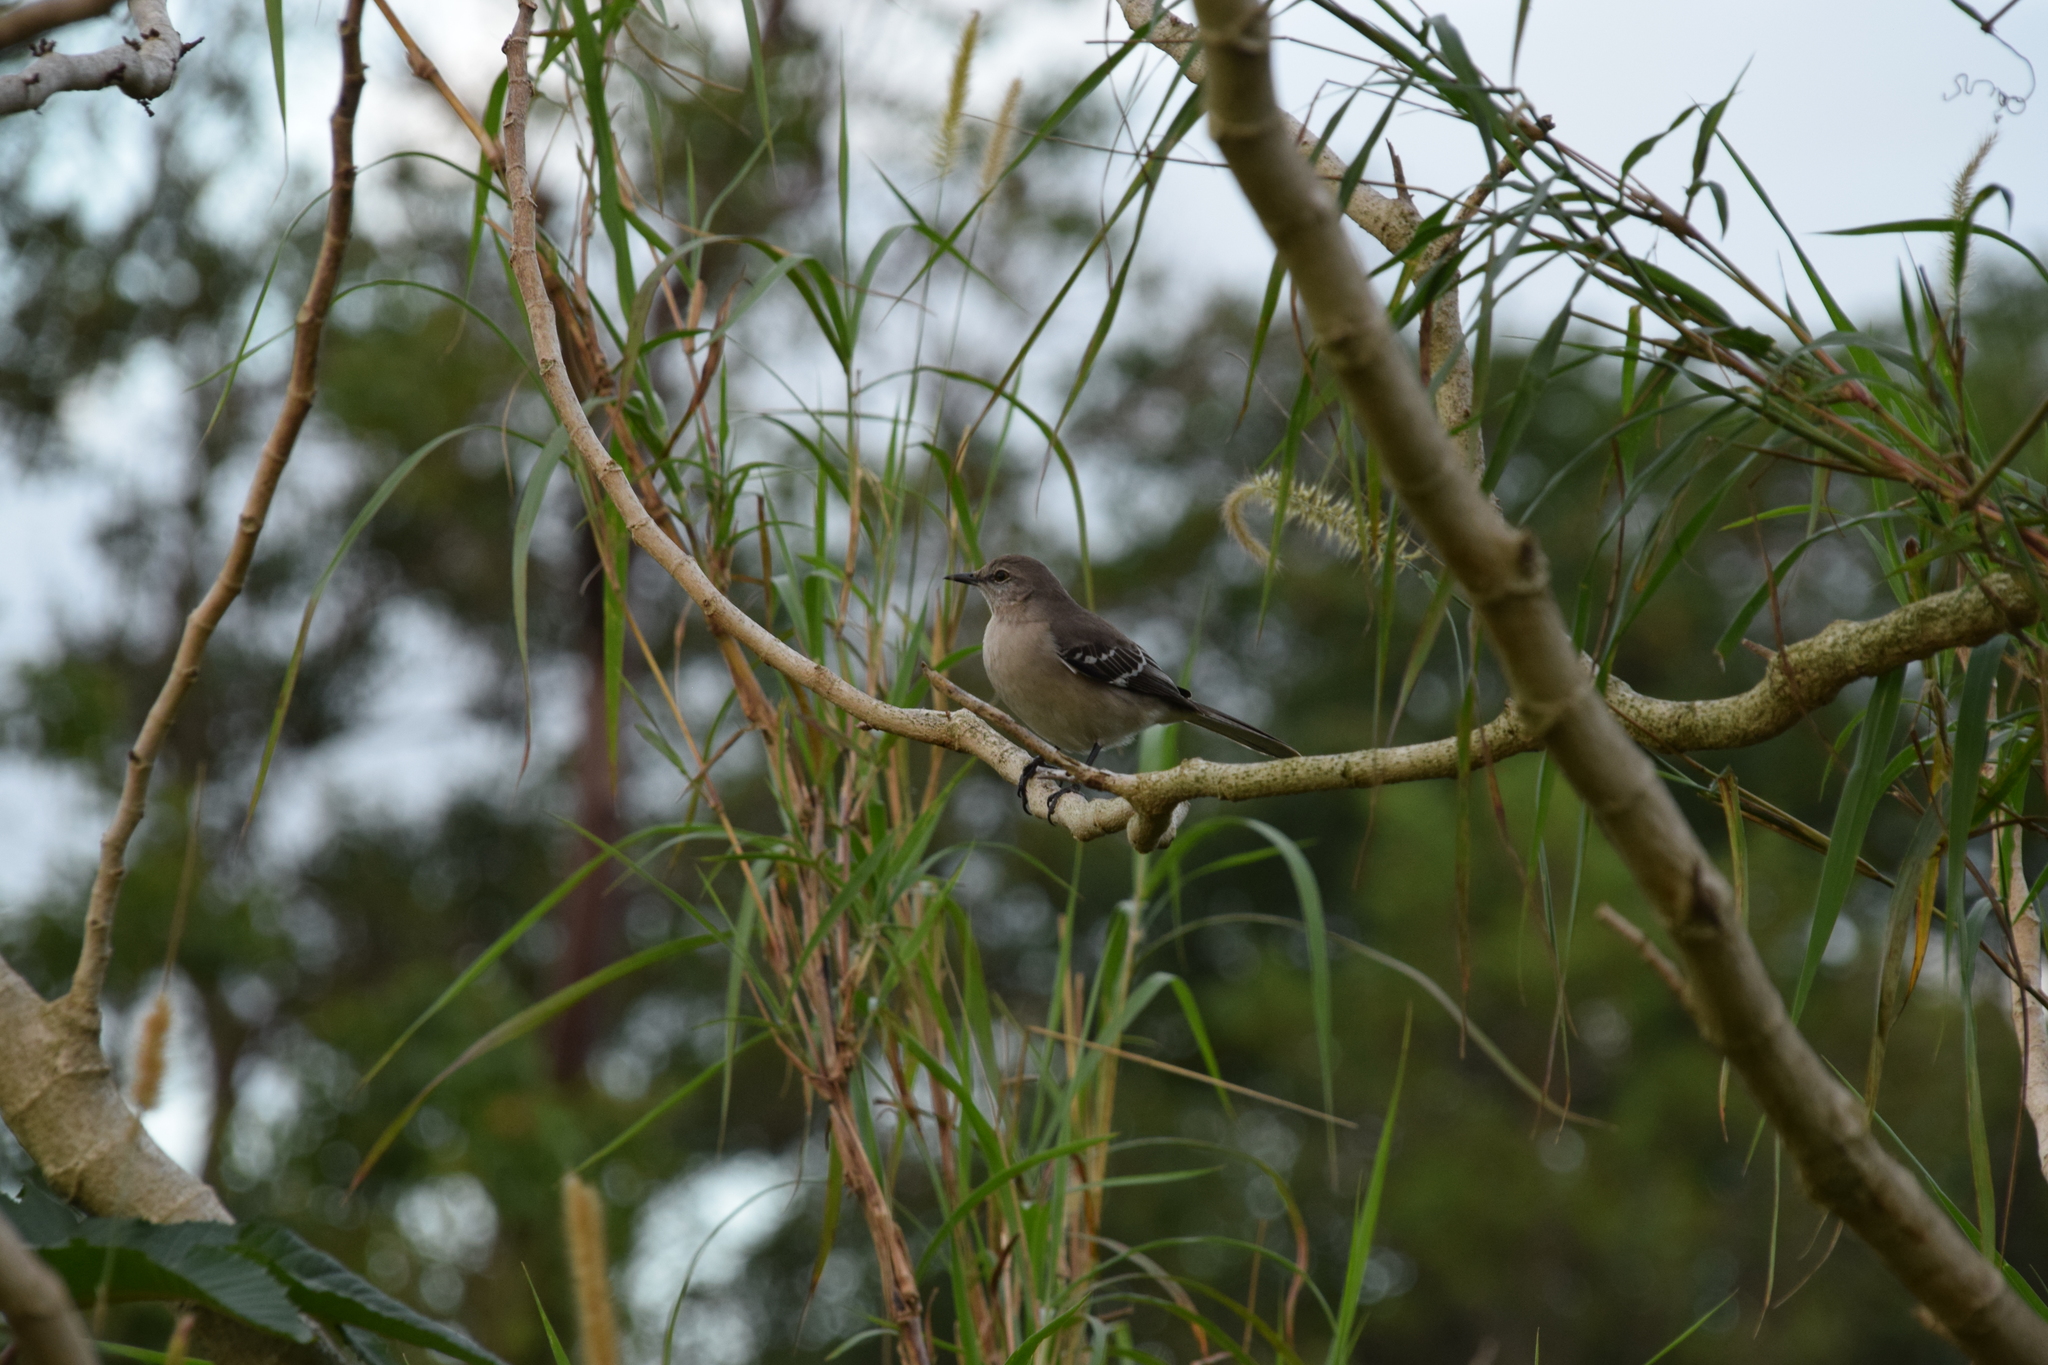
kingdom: Animalia
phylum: Chordata
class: Aves
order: Passeriformes
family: Mimidae
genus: Mimus
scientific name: Mimus polyglottos
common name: Northern mockingbird
